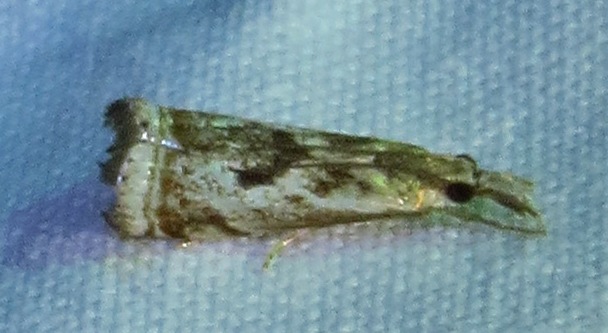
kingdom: Animalia
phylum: Arthropoda
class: Insecta
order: Lepidoptera
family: Crambidae
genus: Microcrambus
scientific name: Microcrambus elegans
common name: Elegant grass-veneer
